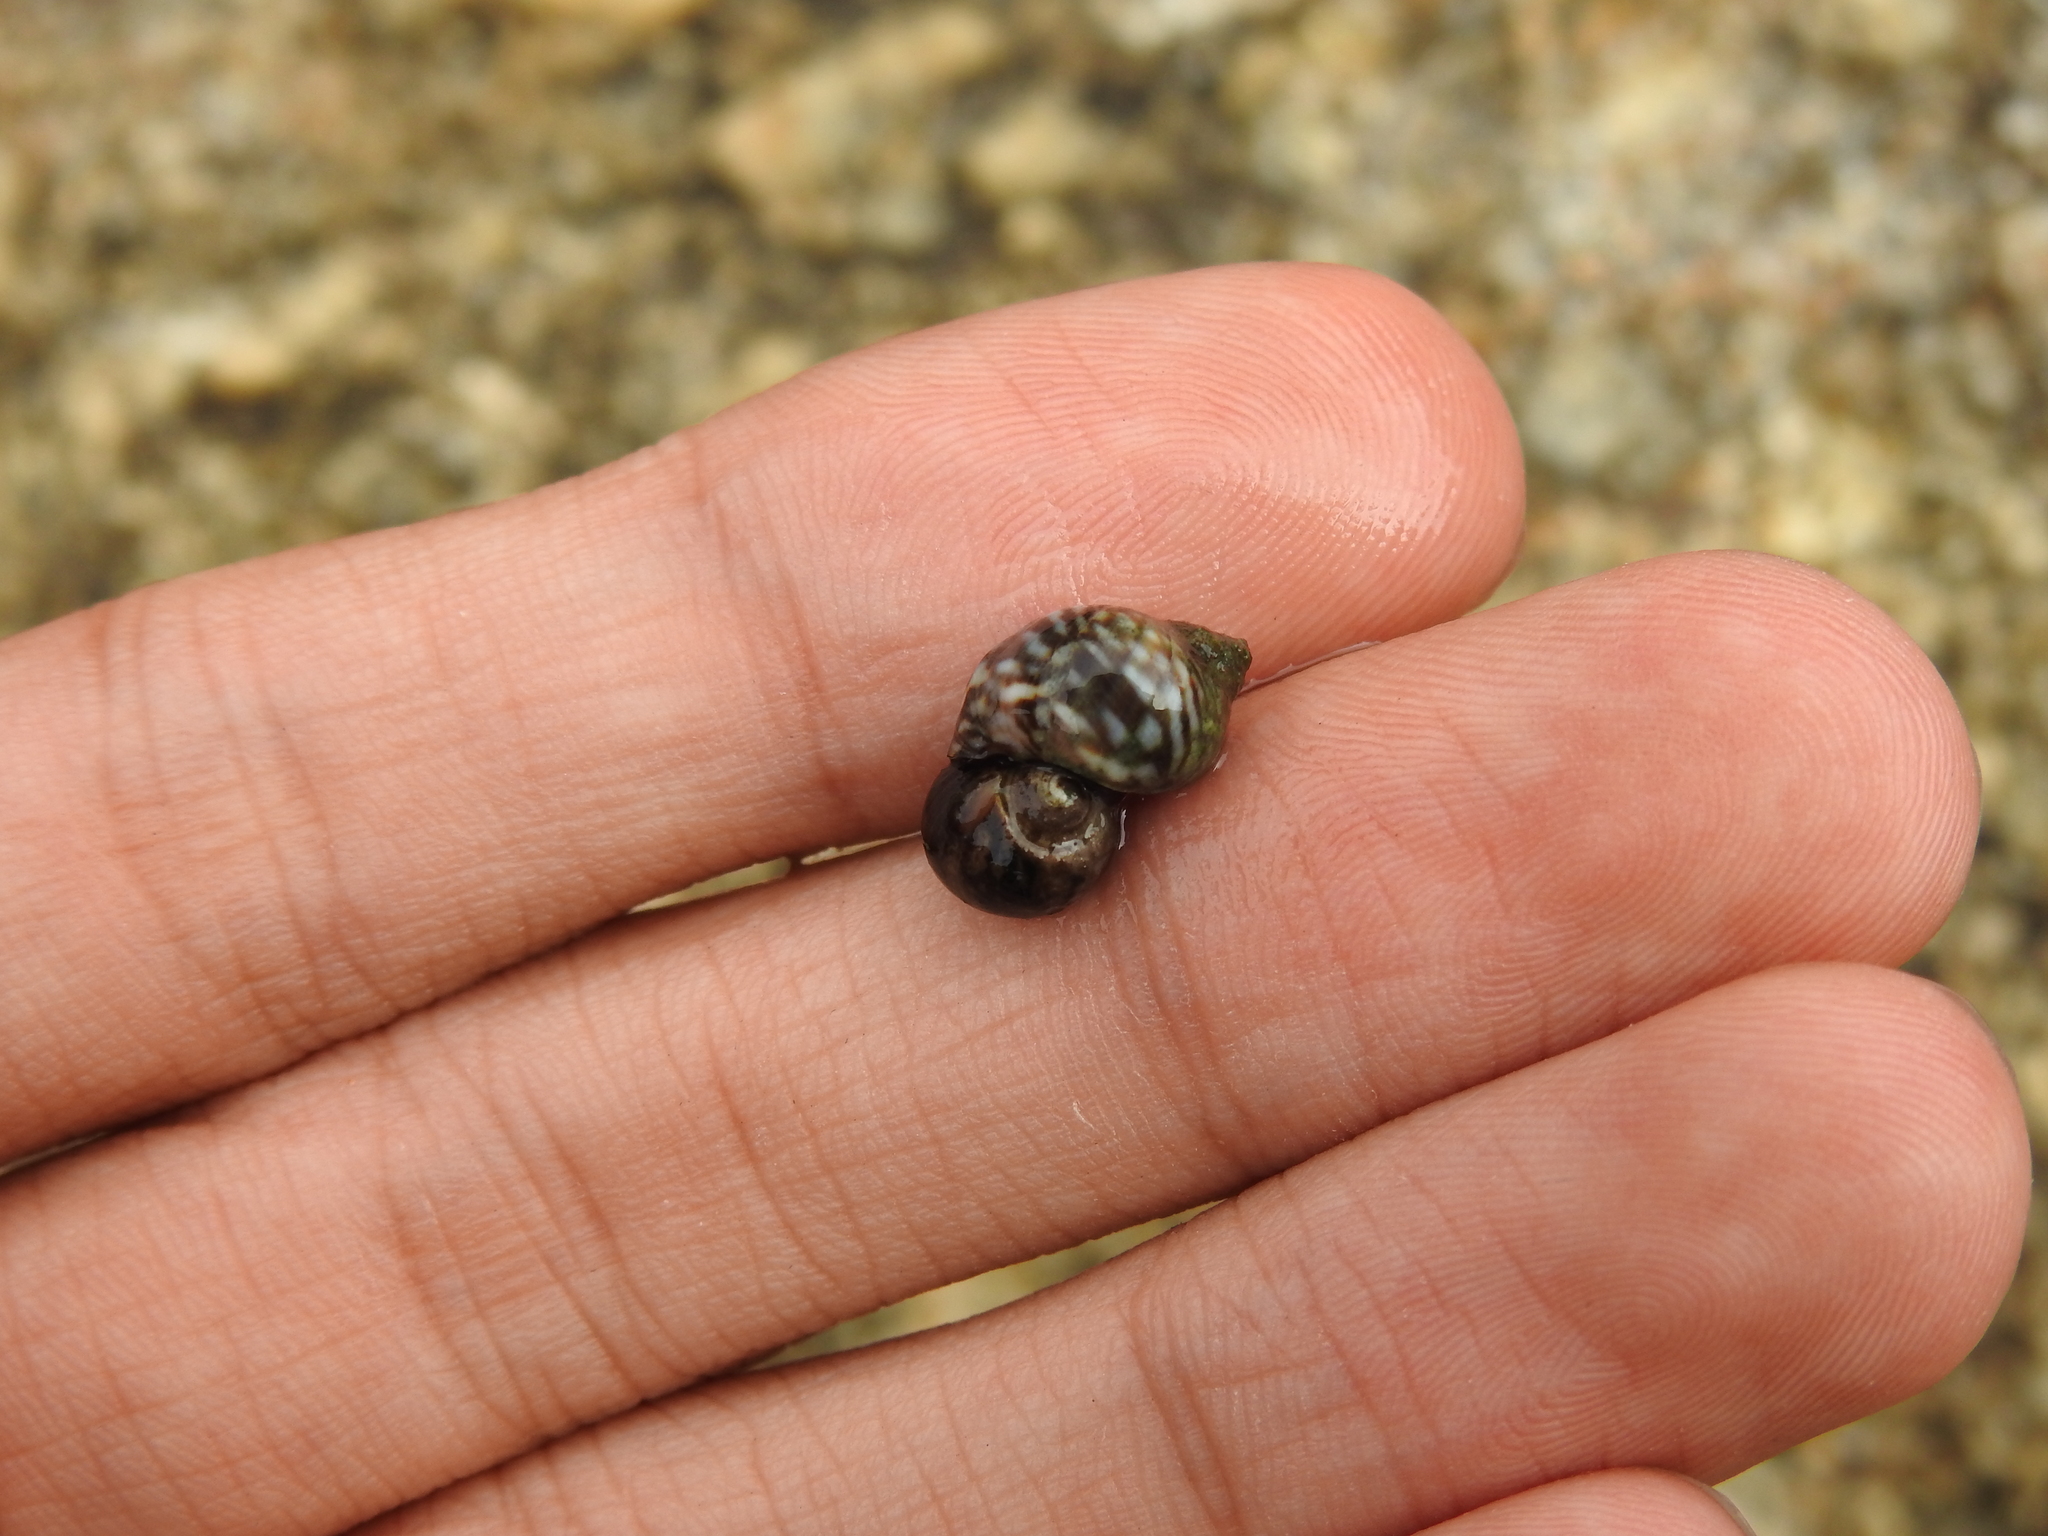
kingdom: Animalia
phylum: Mollusca
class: Gastropoda
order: Littorinimorpha
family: Littorinidae
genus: Littorina
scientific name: Littorina keenae
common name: Eroded periwinkle
